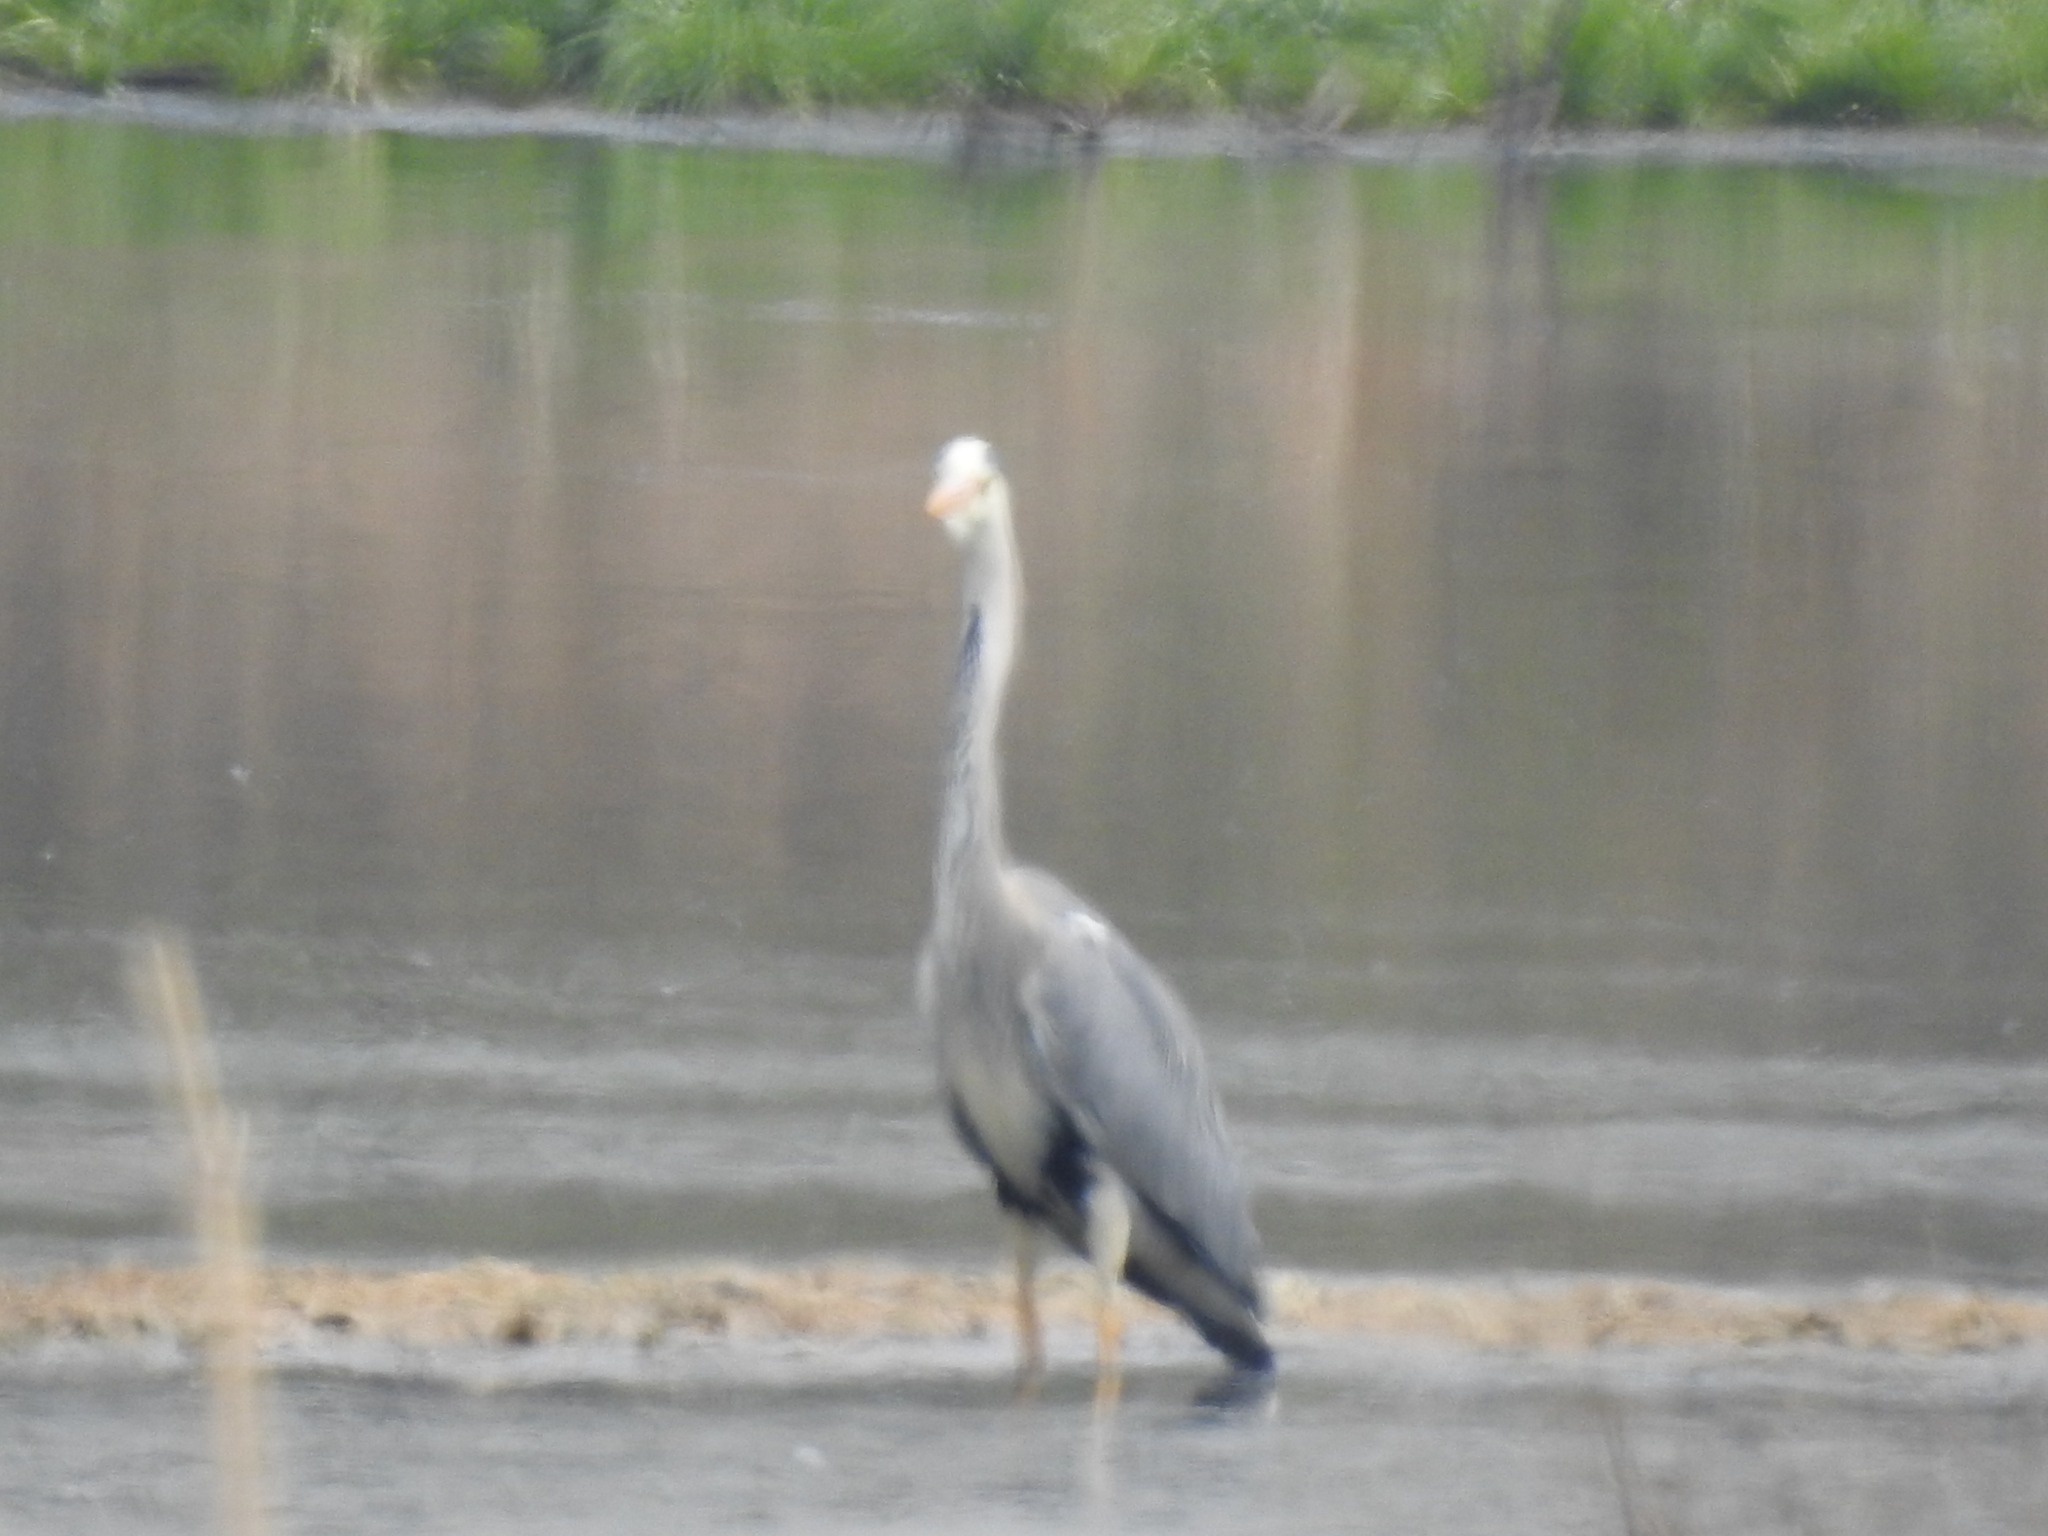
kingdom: Animalia
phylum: Chordata
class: Aves
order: Pelecaniformes
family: Ardeidae
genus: Ardea
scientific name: Ardea cinerea
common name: Grey heron
